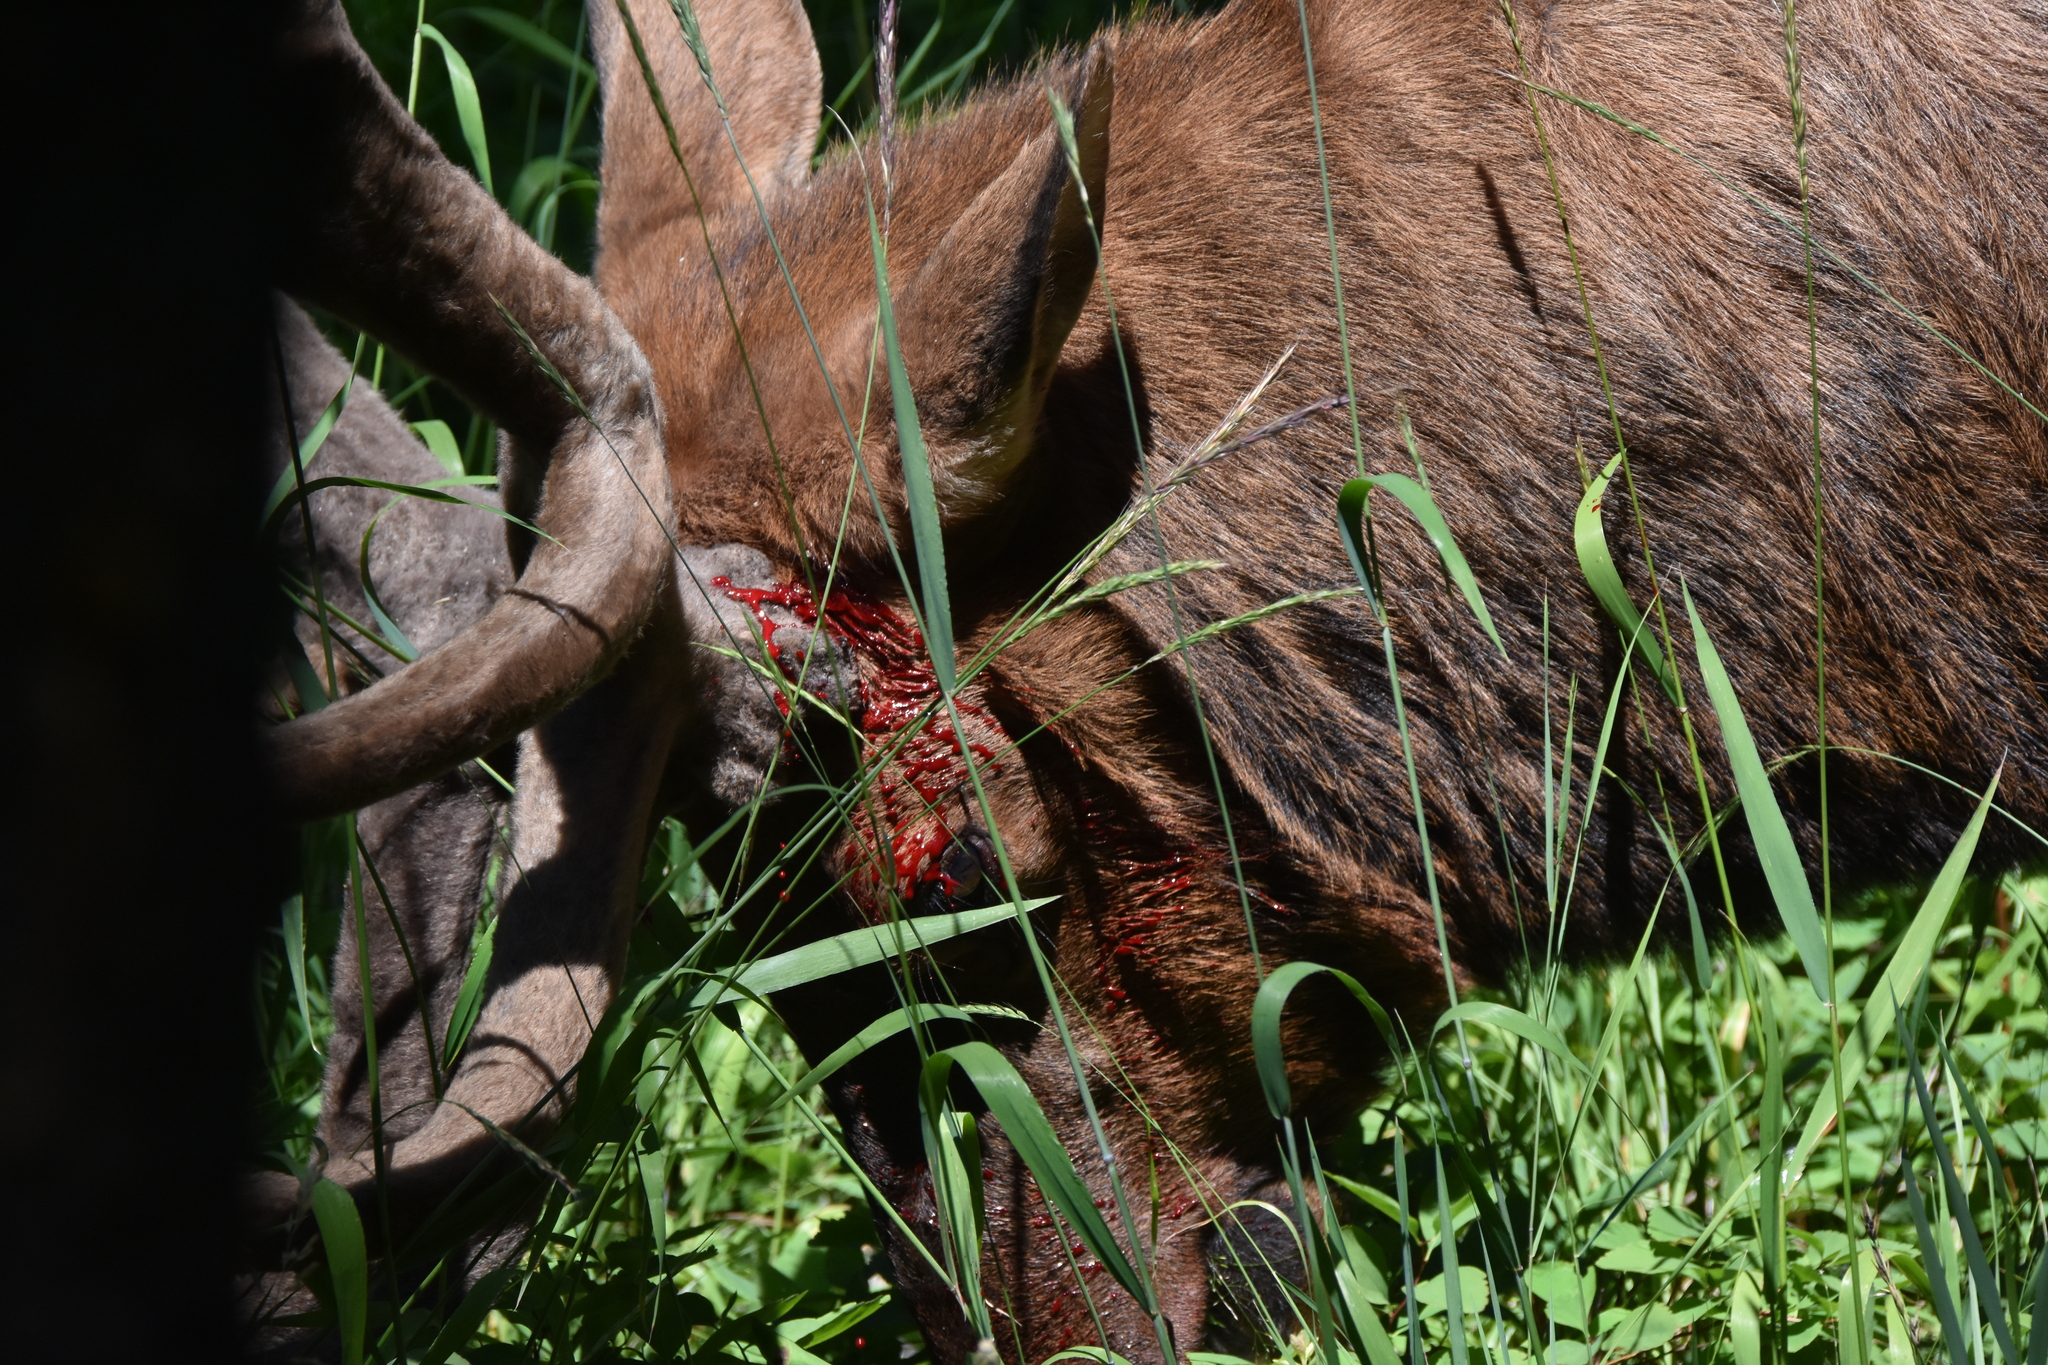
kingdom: Animalia
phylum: Chordata
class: Mammalia
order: Artiodactyla
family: Cervidae
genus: Cervus
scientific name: Cervus elaphus
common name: Red deer
